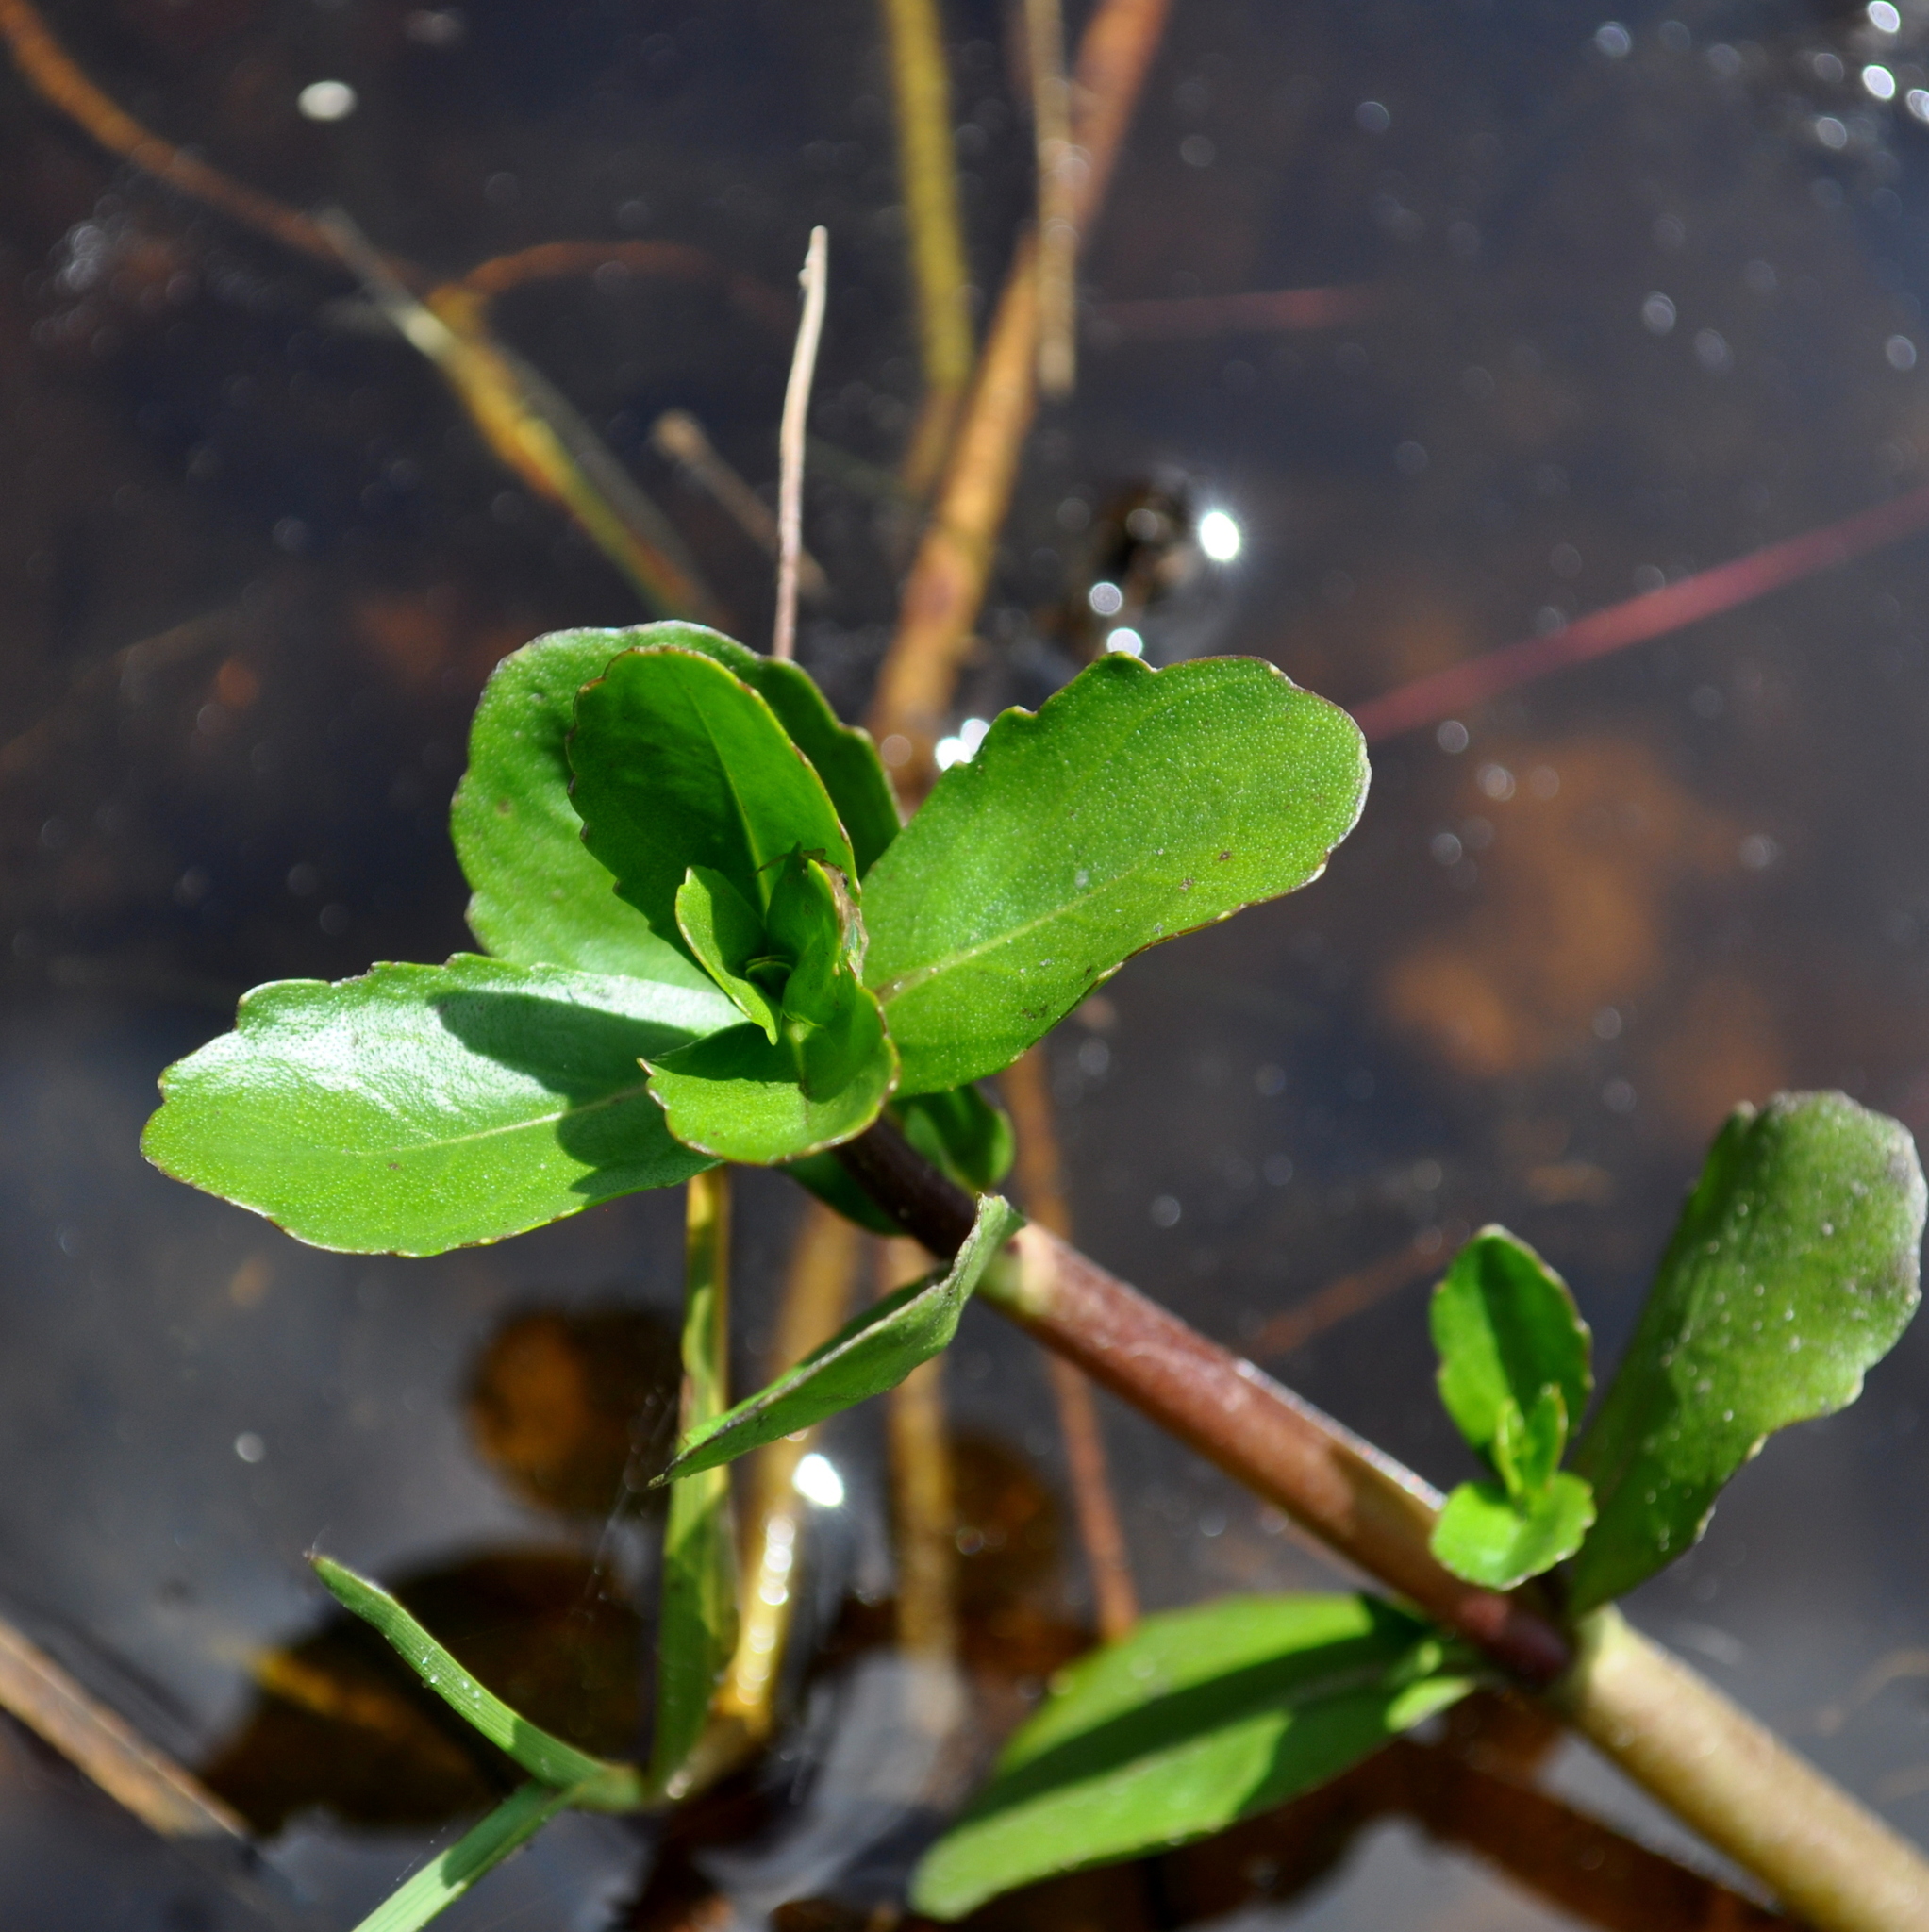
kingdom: Plantae
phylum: Tracheophyta
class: Magnoliopsida
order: Asterales
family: Asteraceae
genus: Enydra
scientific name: Enydra fluctuans
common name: Buffalo spinach
